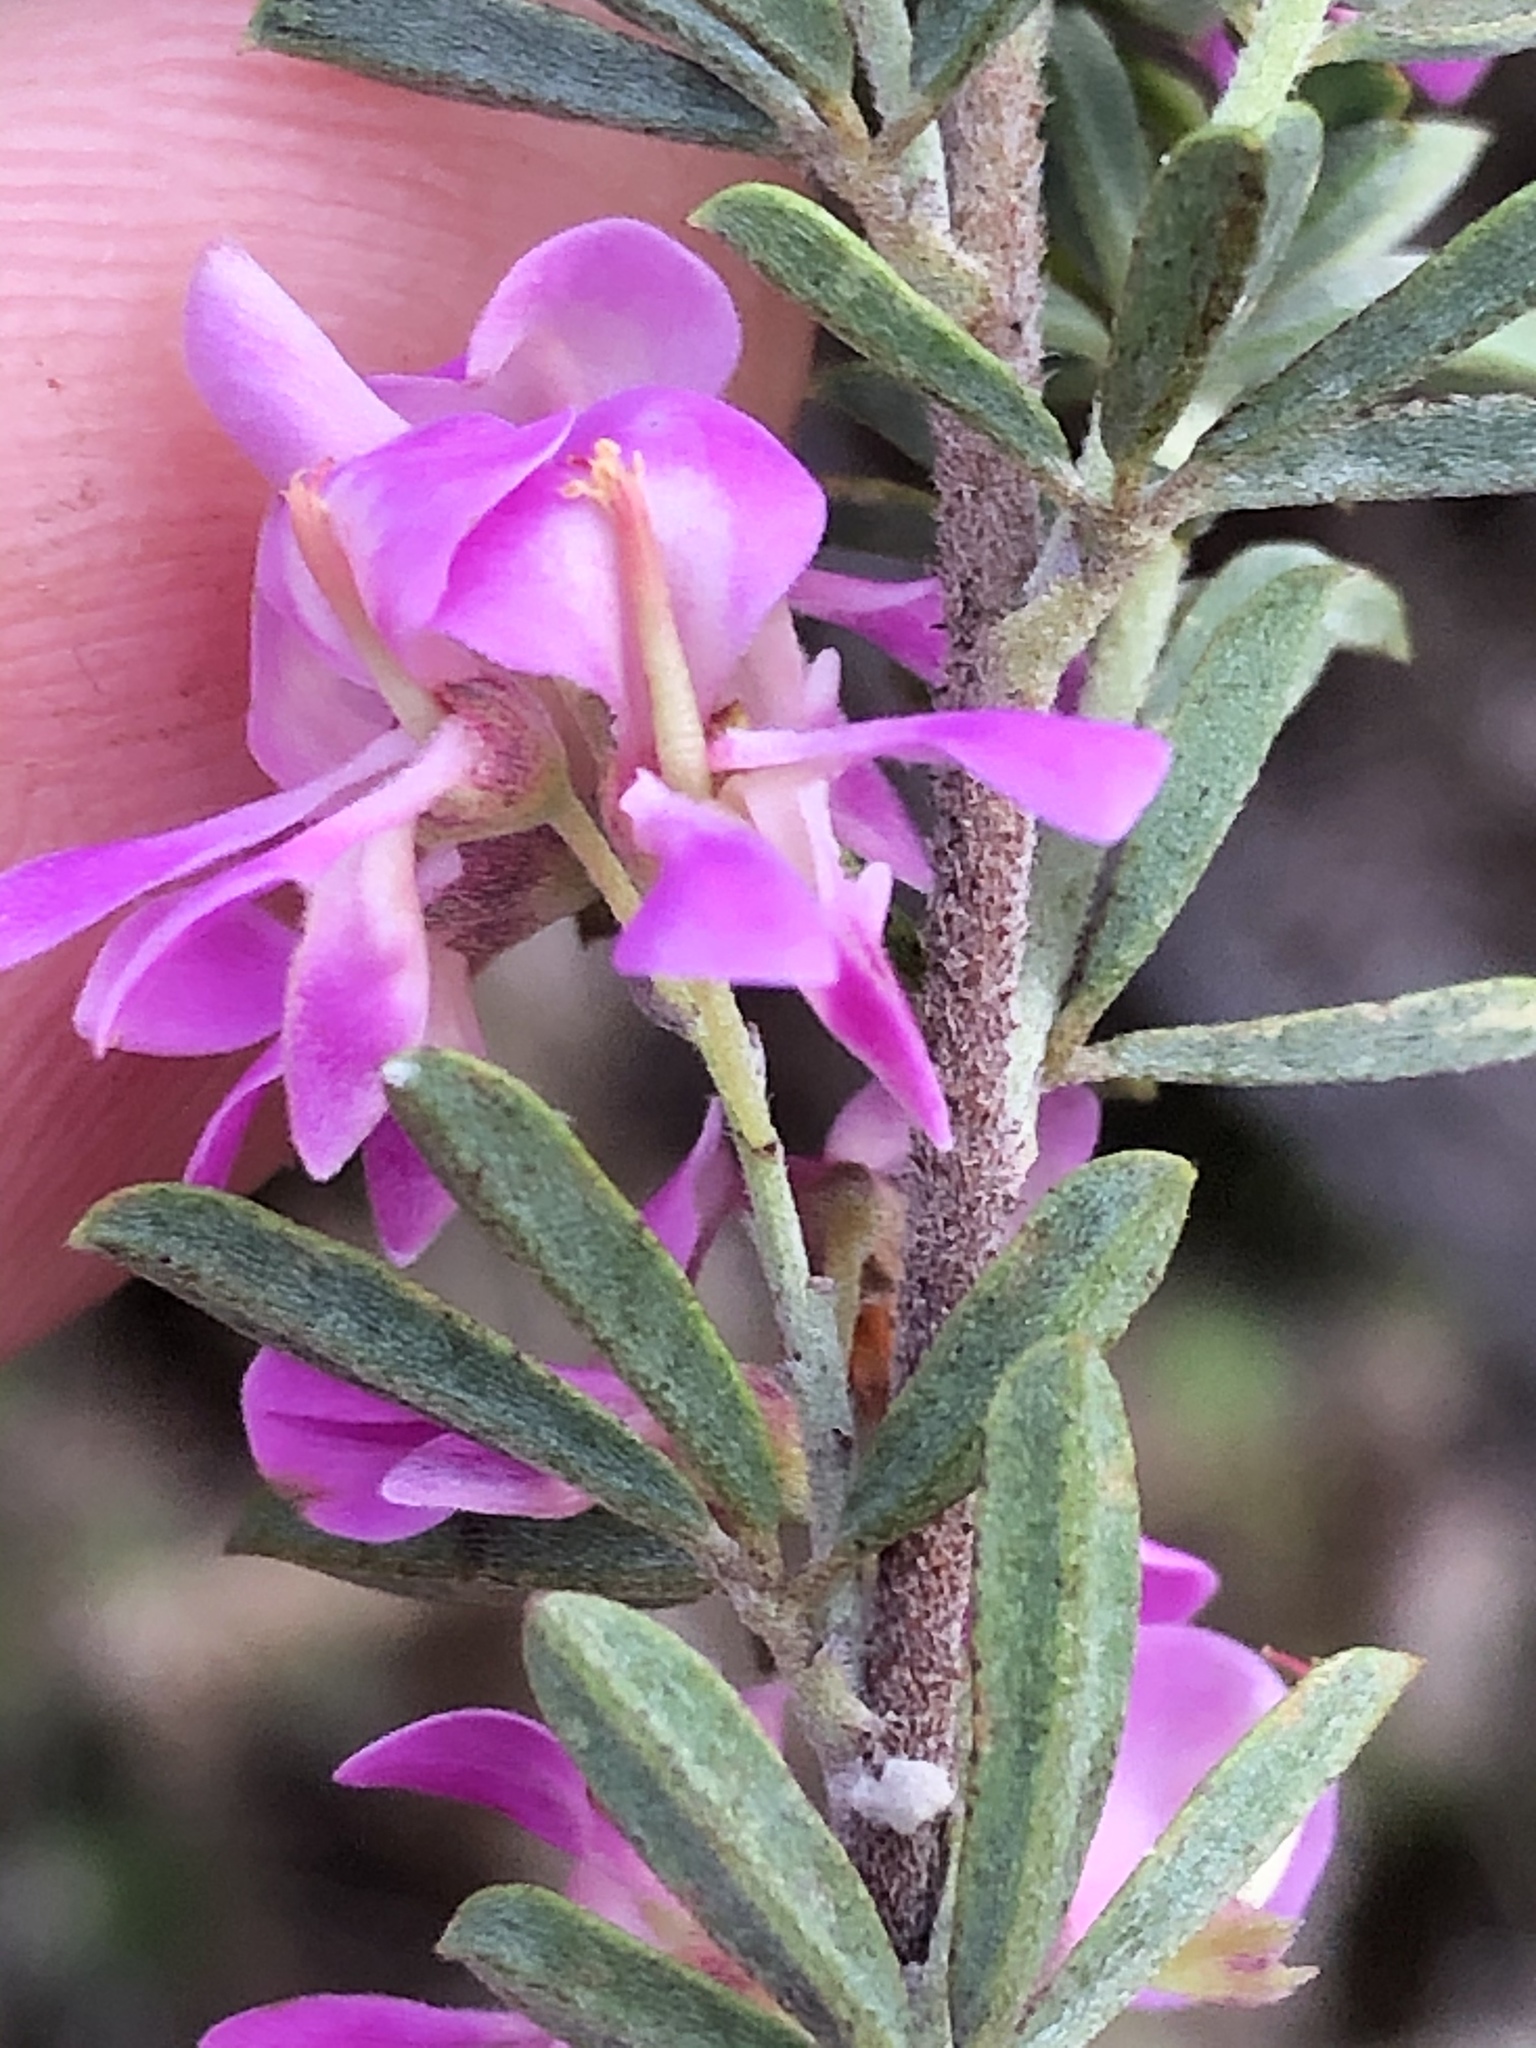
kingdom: Plantae
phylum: Tracheophyta
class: Magnoliopsida
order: Fabales
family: Fabaceae
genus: Indigofera
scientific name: Indigofera flabellata
